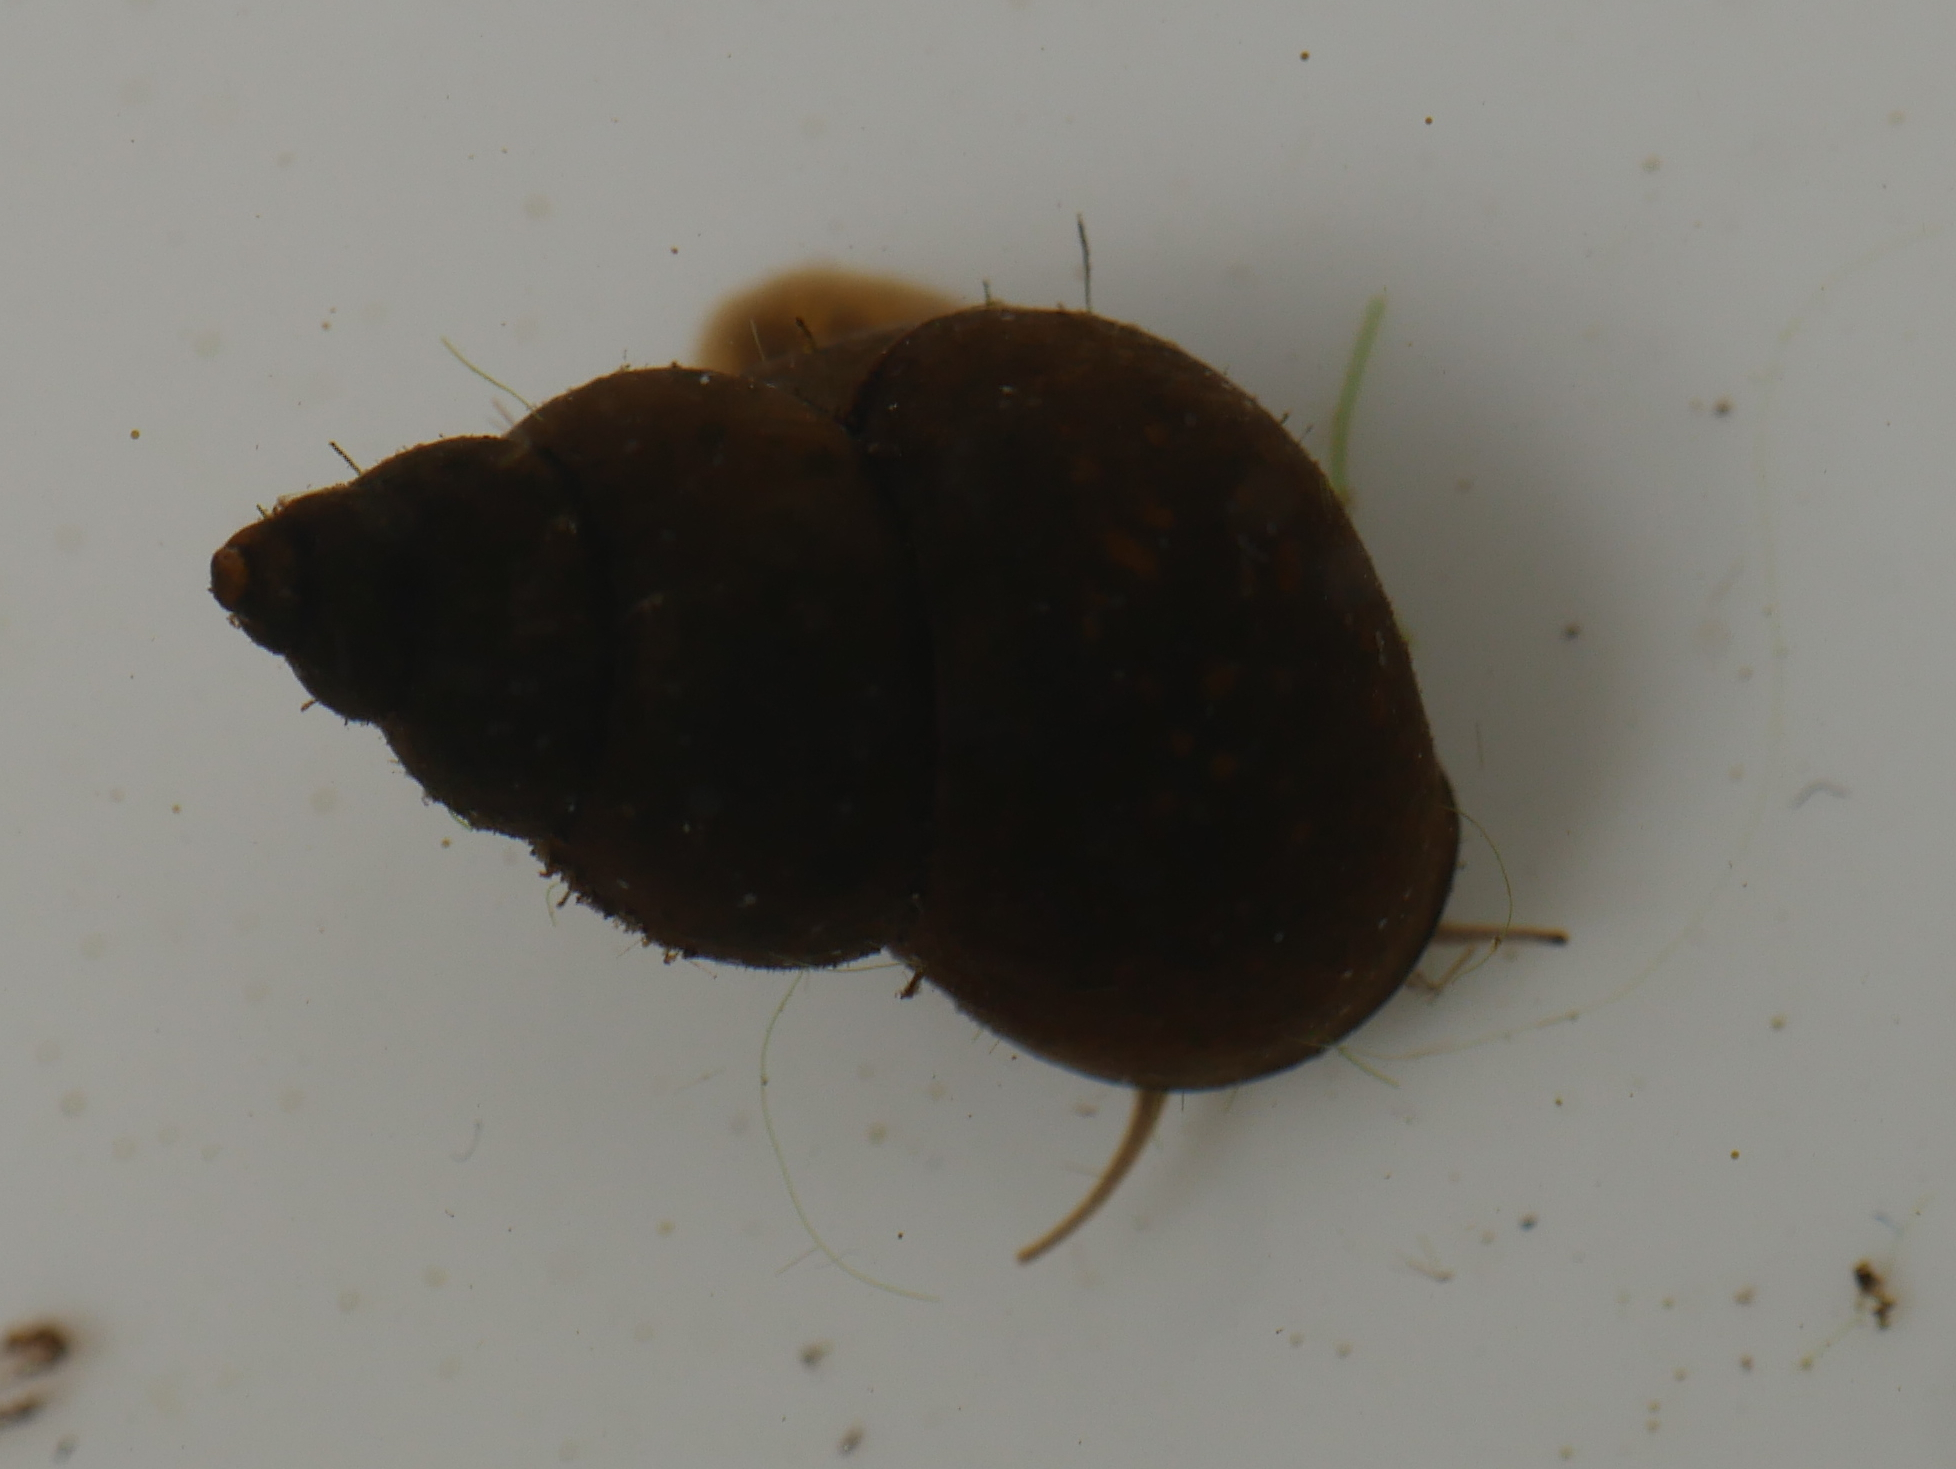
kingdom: Animalia
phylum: Mollusca
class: Gastropoda
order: Littorinimorpha
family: Bithyniidae
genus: Bithynia
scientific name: Bithynia tentaculata
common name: Common bithynia
